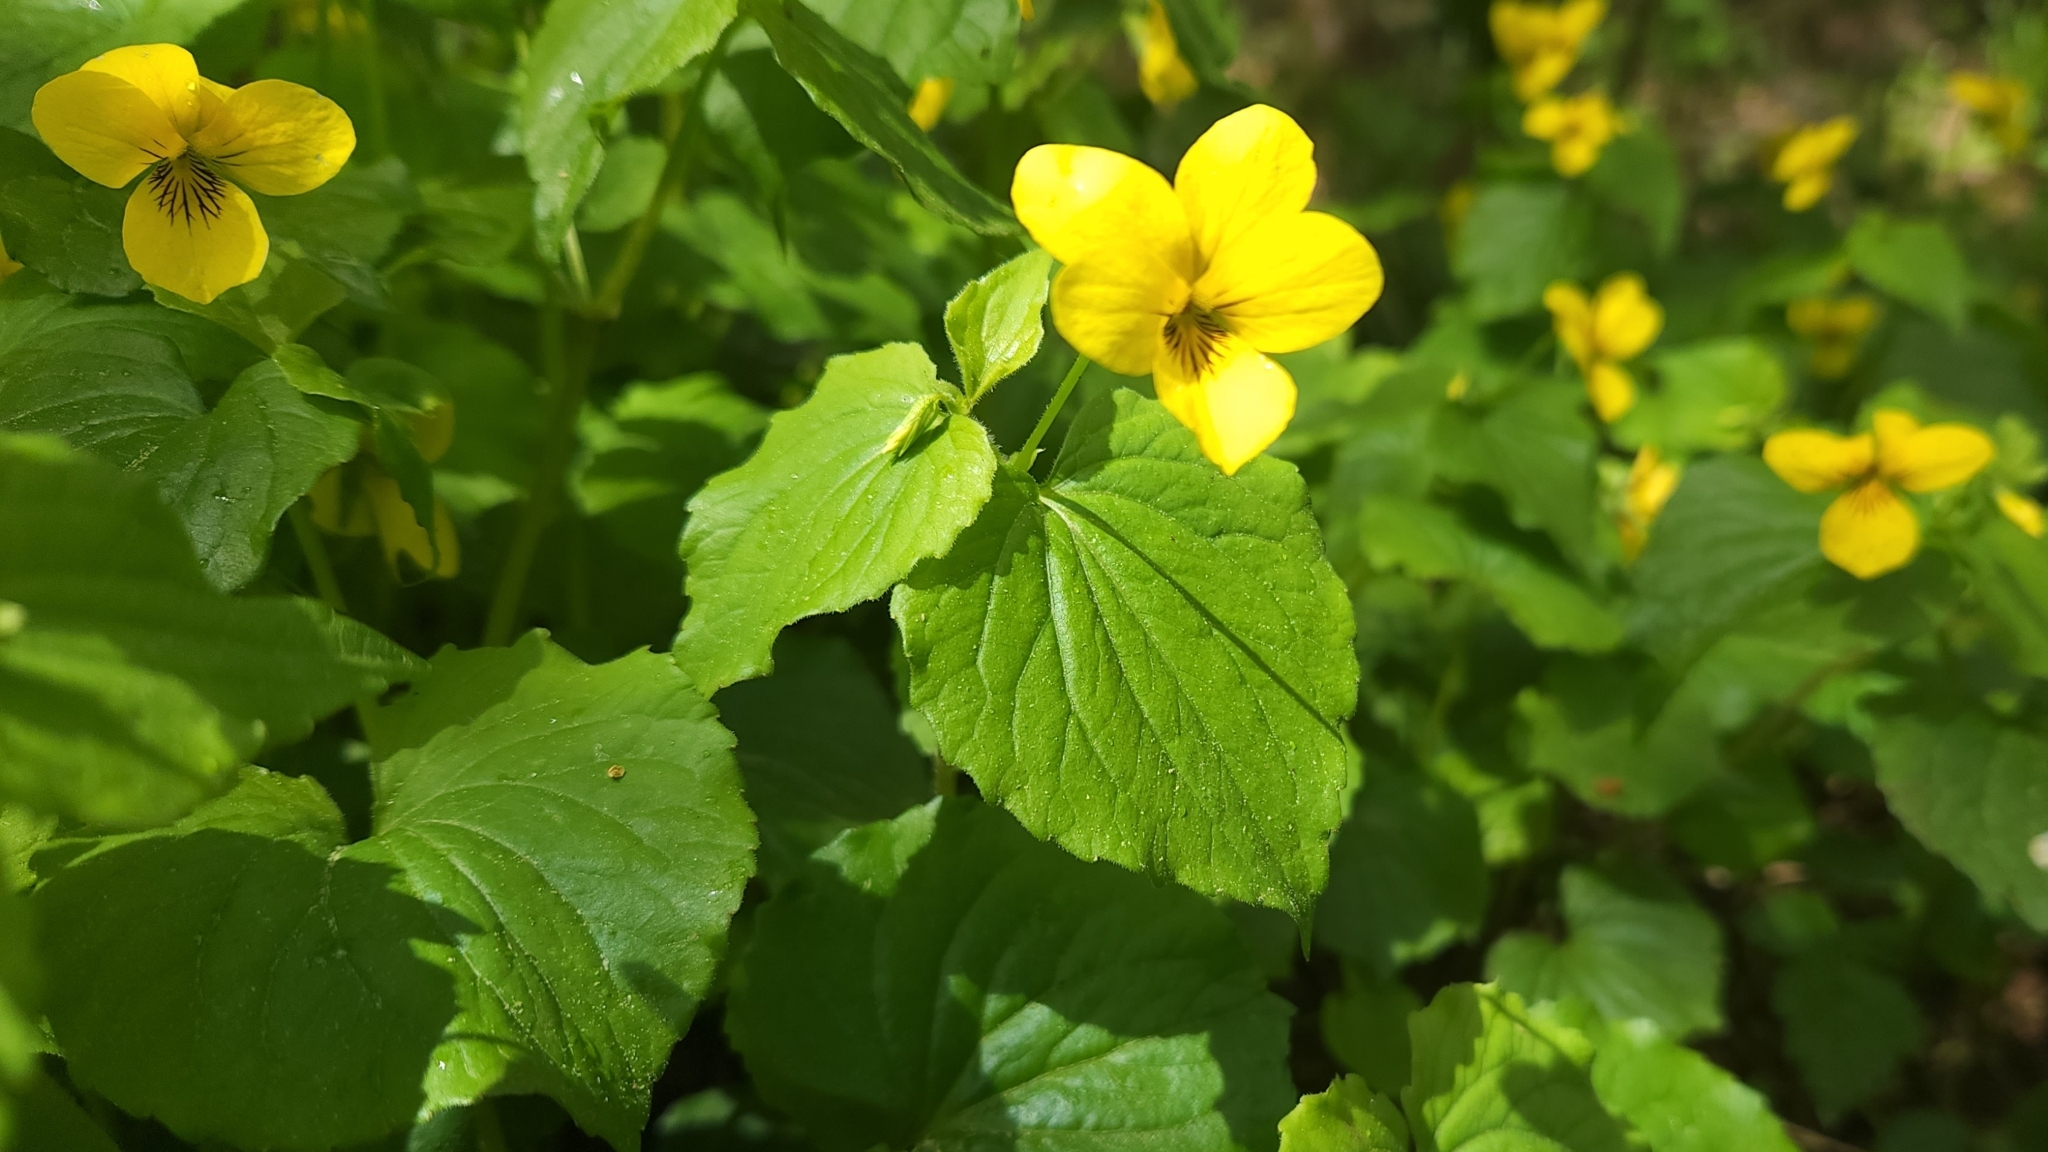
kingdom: Plantae
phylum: Tracheophyta
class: Magnoliopsida
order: Malpighiales
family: Violaceae
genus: Viola
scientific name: Viola glabella
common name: Stream violet
